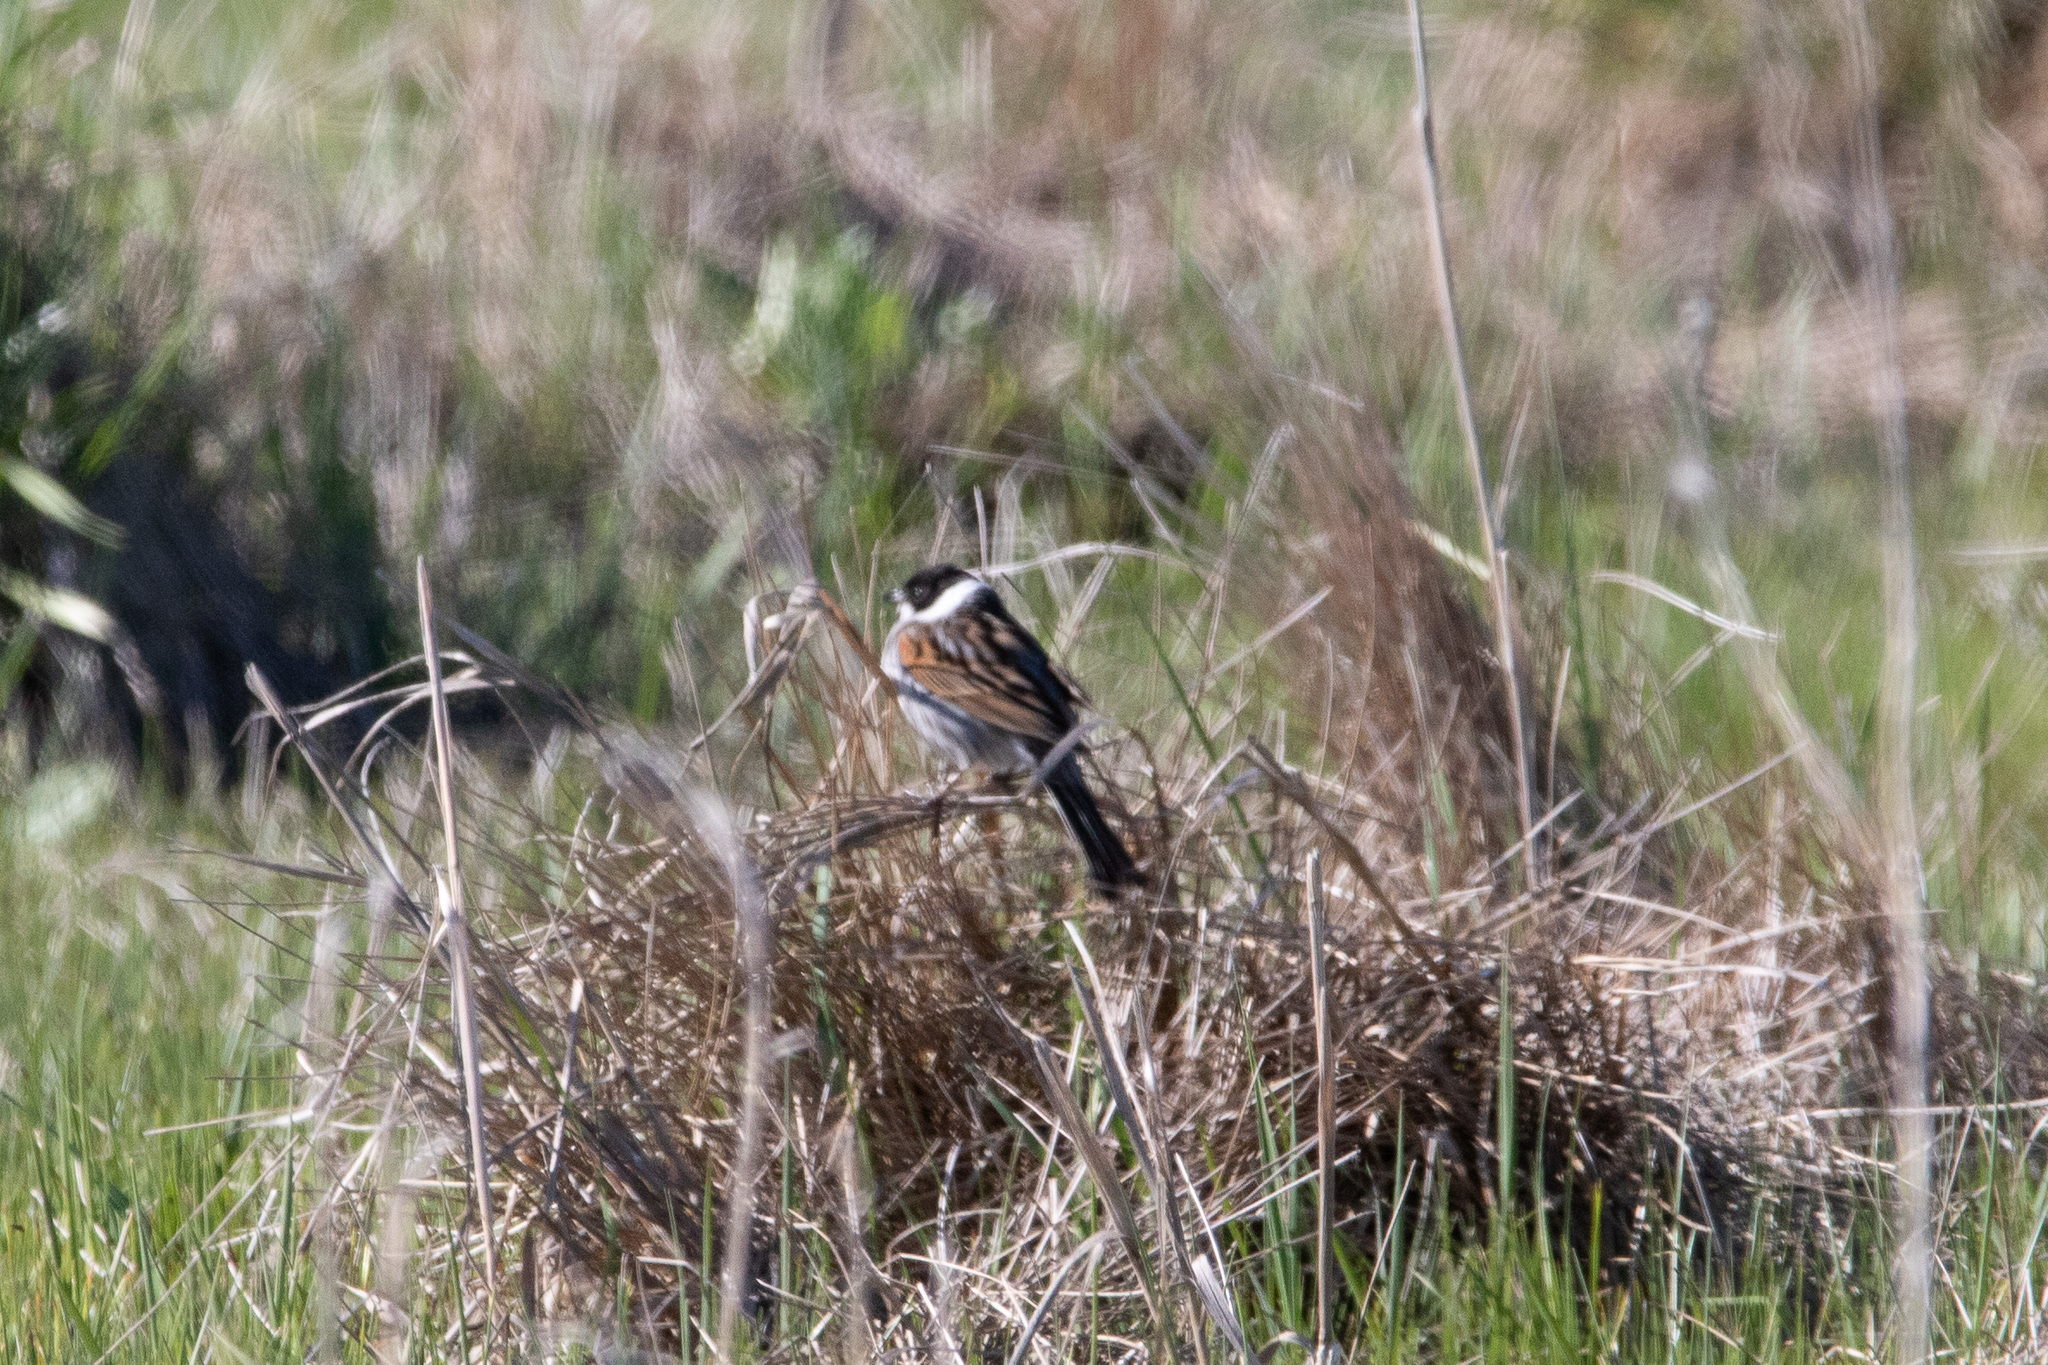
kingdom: Animalia
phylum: Chordata
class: Aves
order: Passeriformes
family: Emberizidae
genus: Emberiza
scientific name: Emberiza schoeniclus
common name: Reed bunting
